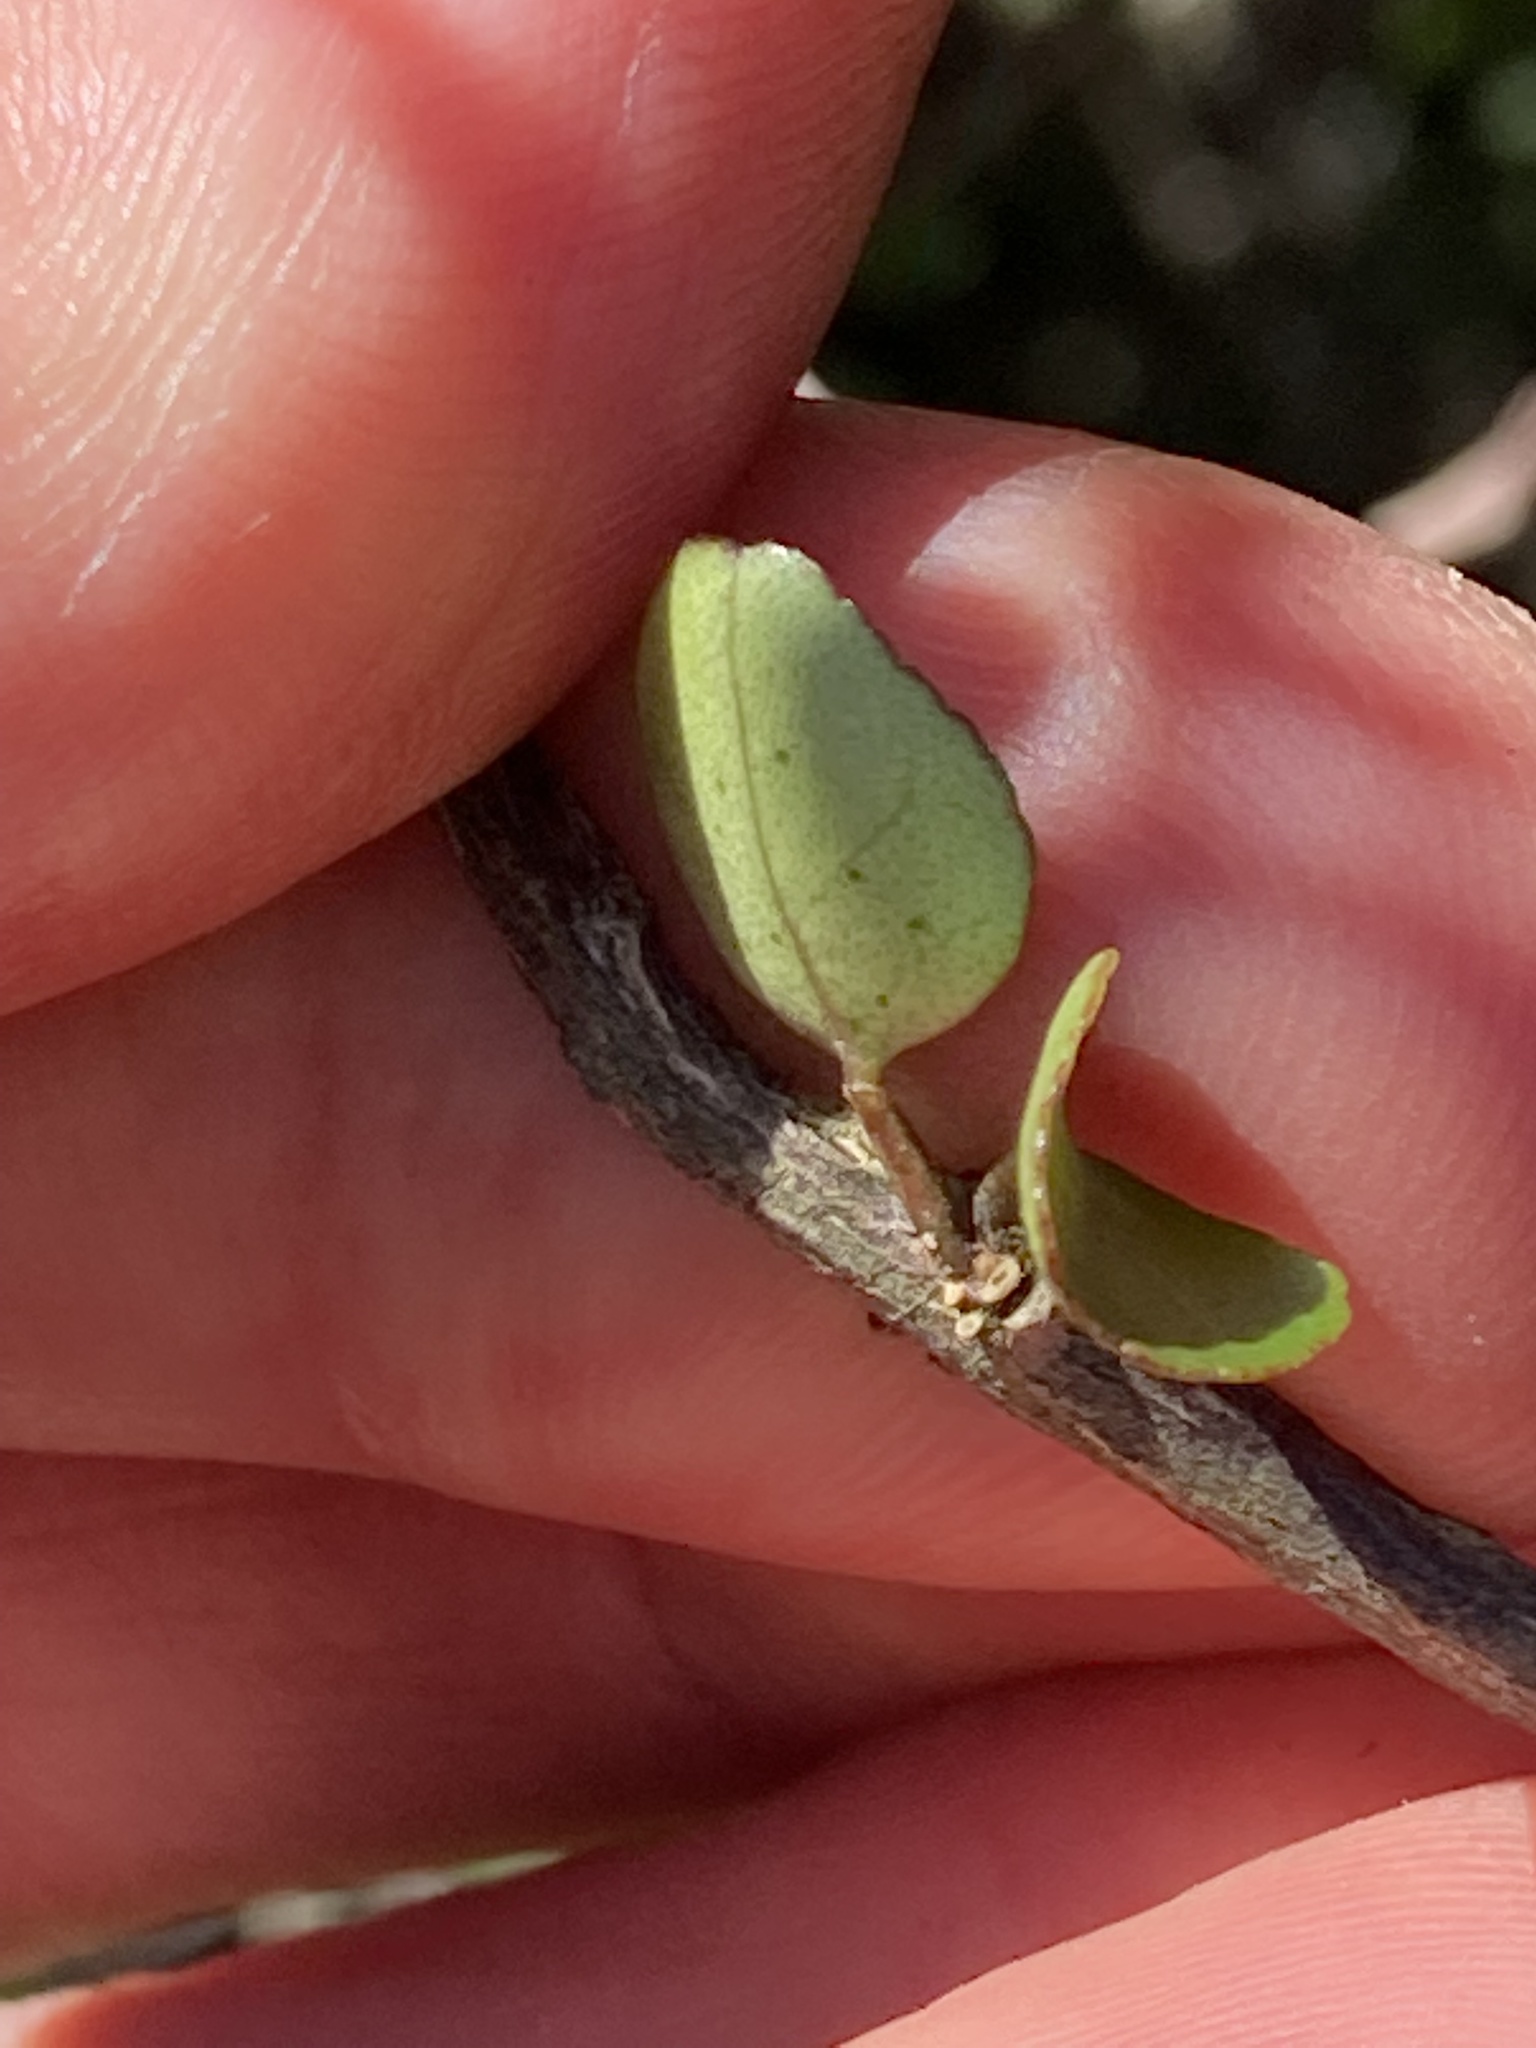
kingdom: Plantae
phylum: Tracheophyta
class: Magnoliopsida
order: Sapindales
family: Rutaceae
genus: Melicope
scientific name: Melicope simplex
